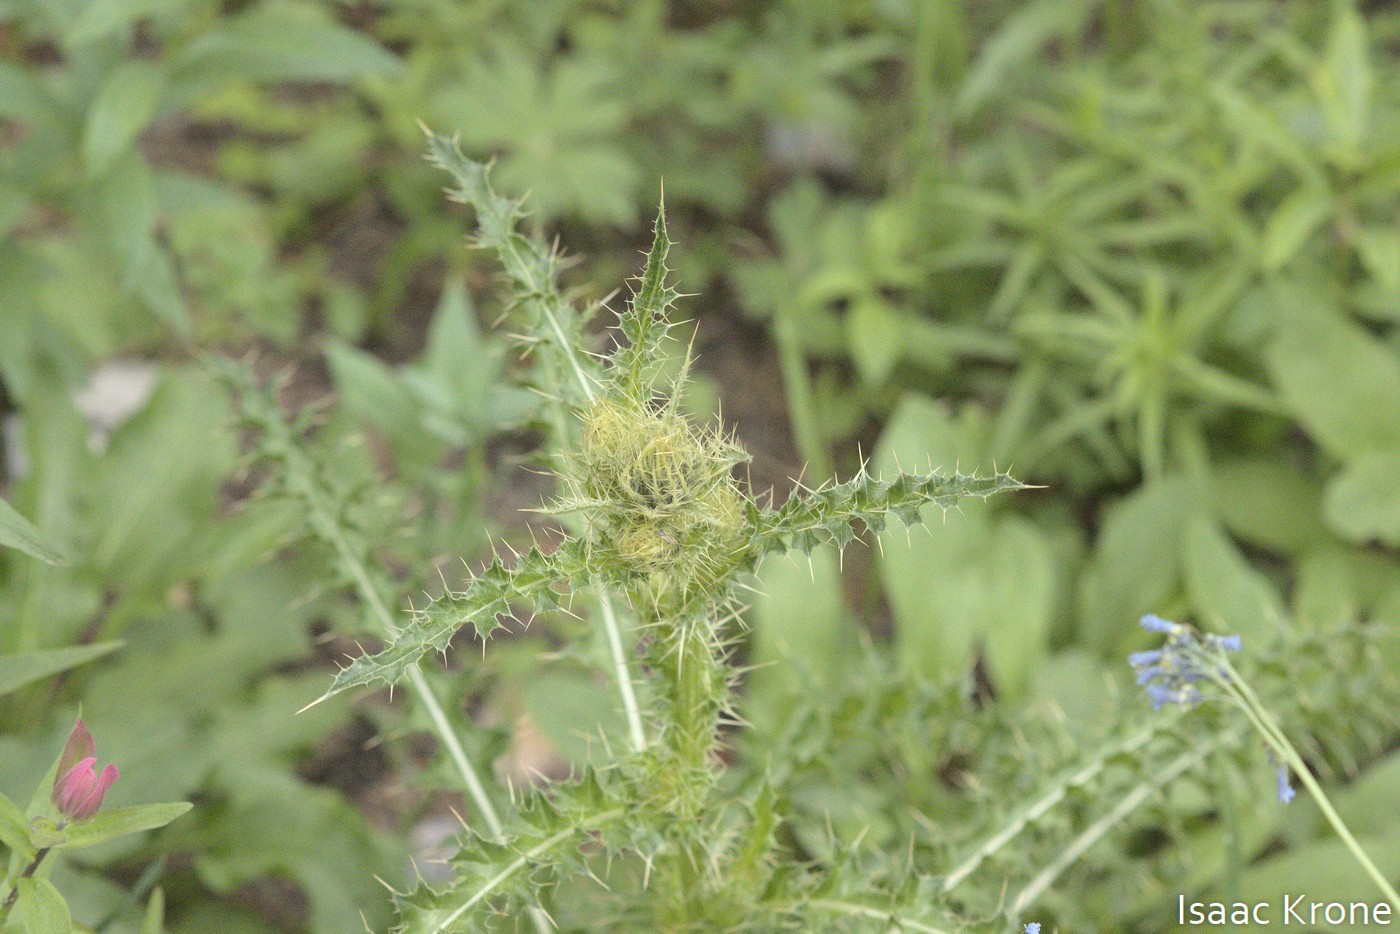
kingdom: Plantae
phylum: Tracheophyta
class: Magnoliopsida
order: Asterales
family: Asteraceae
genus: Cirsium
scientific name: Cirsium eatonii
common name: Eaton's thistle
